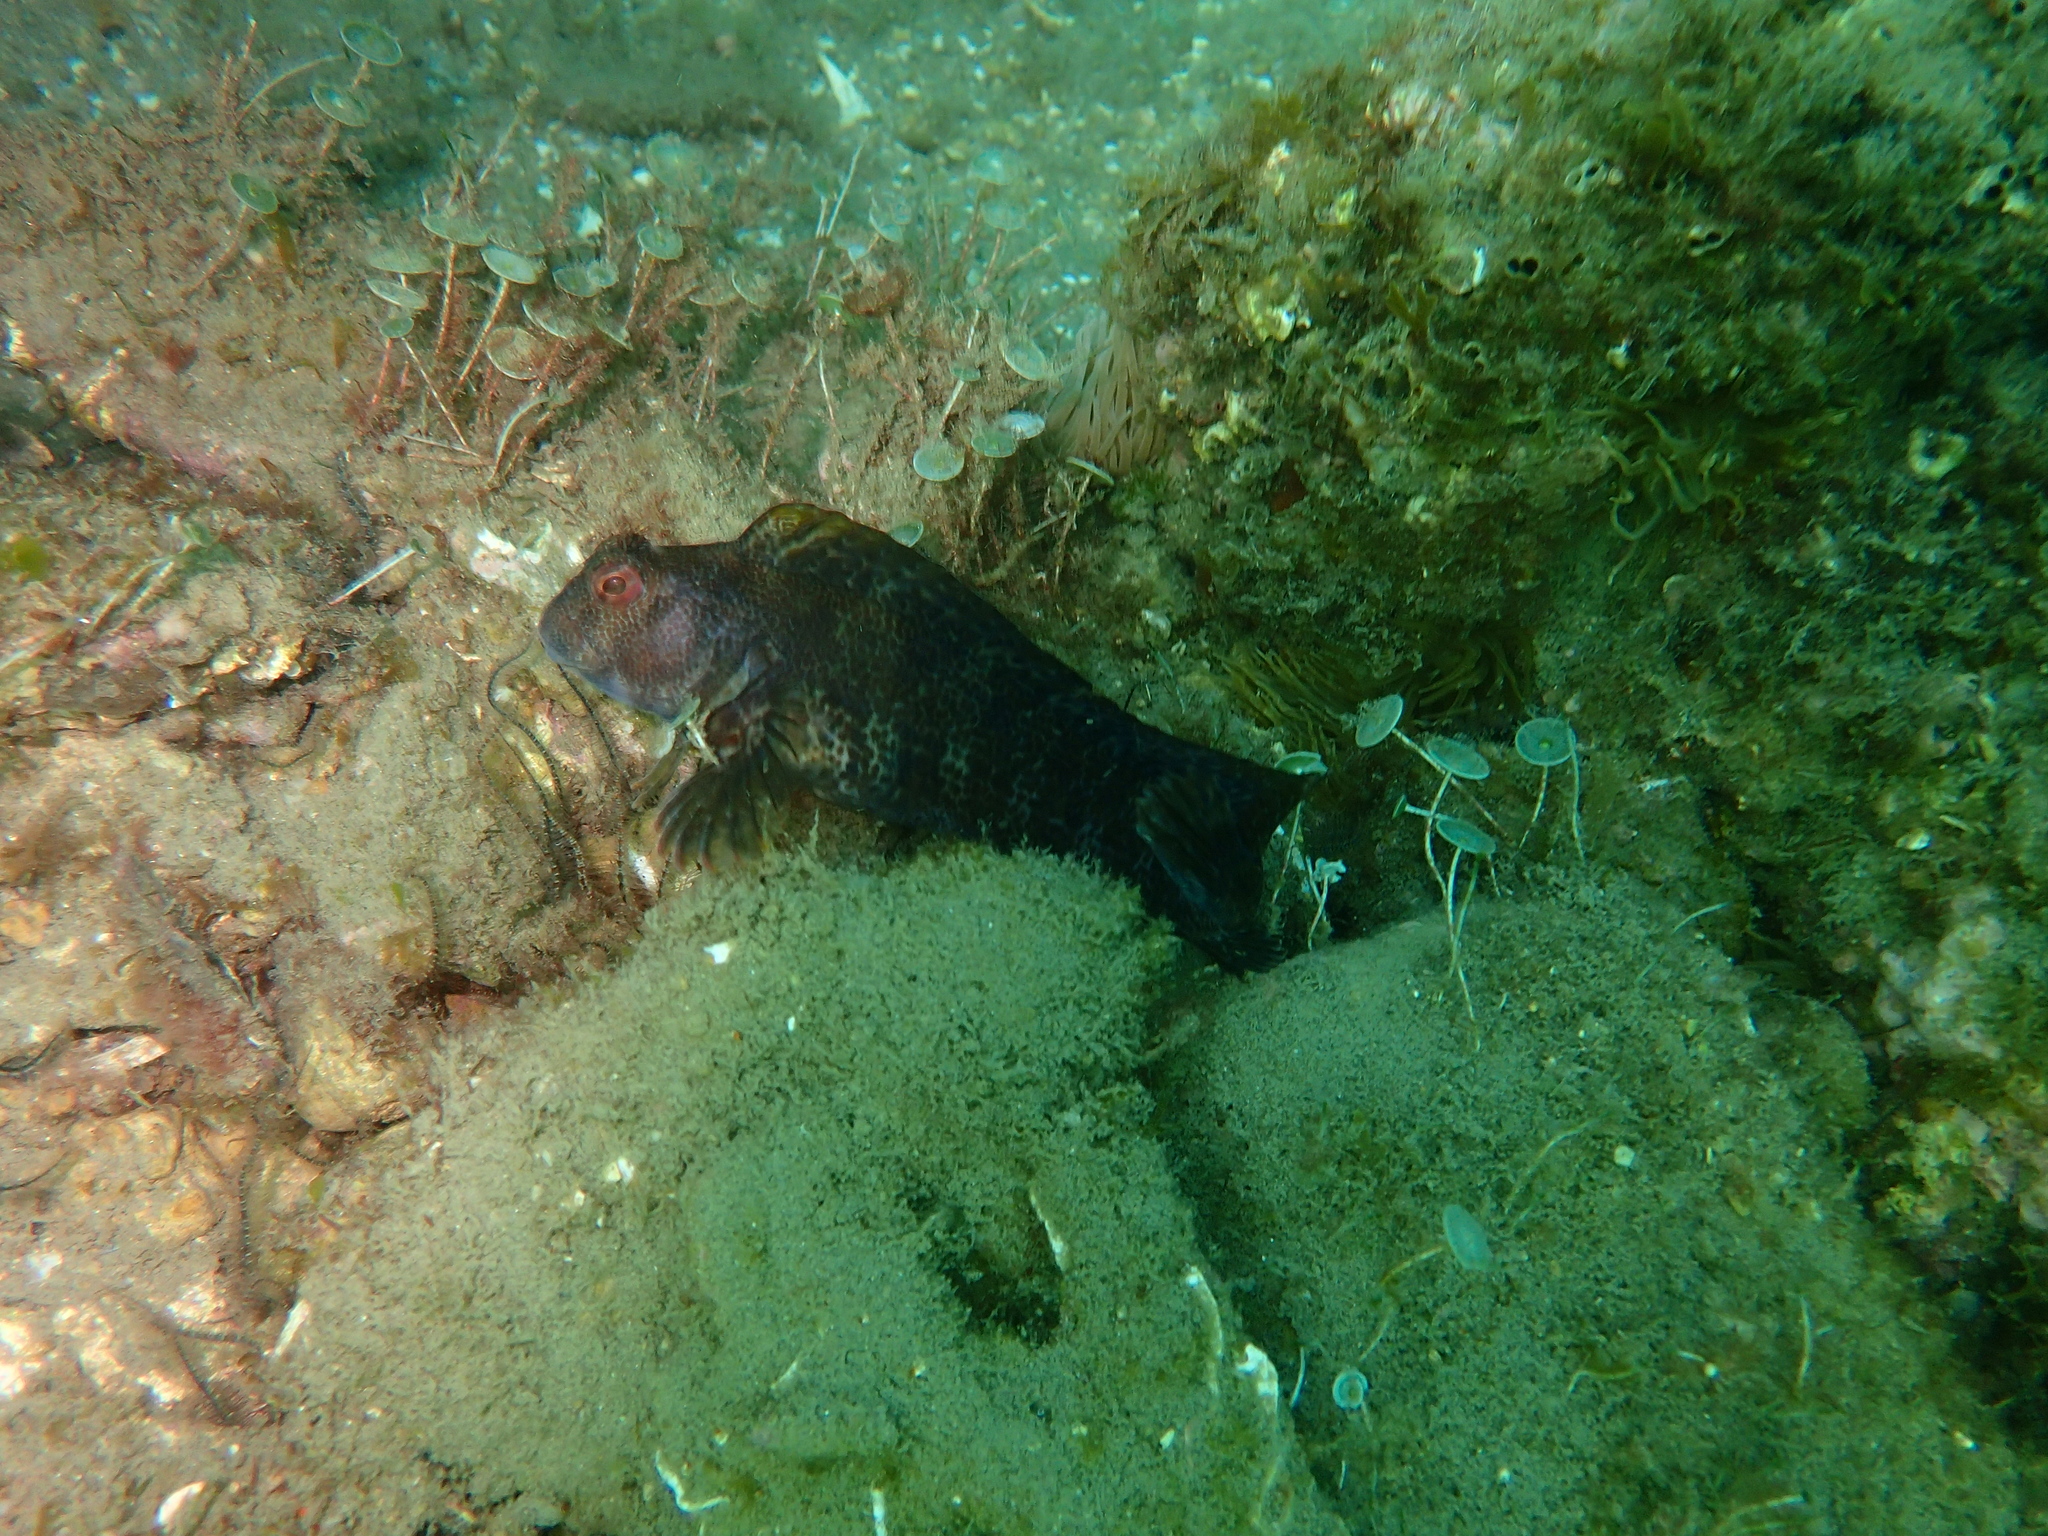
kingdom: Animalia
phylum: Chordata
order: Perciformes
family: Blenniidae
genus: Parablennius
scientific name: Parablennius pilicornis
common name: Ringneck blenny
